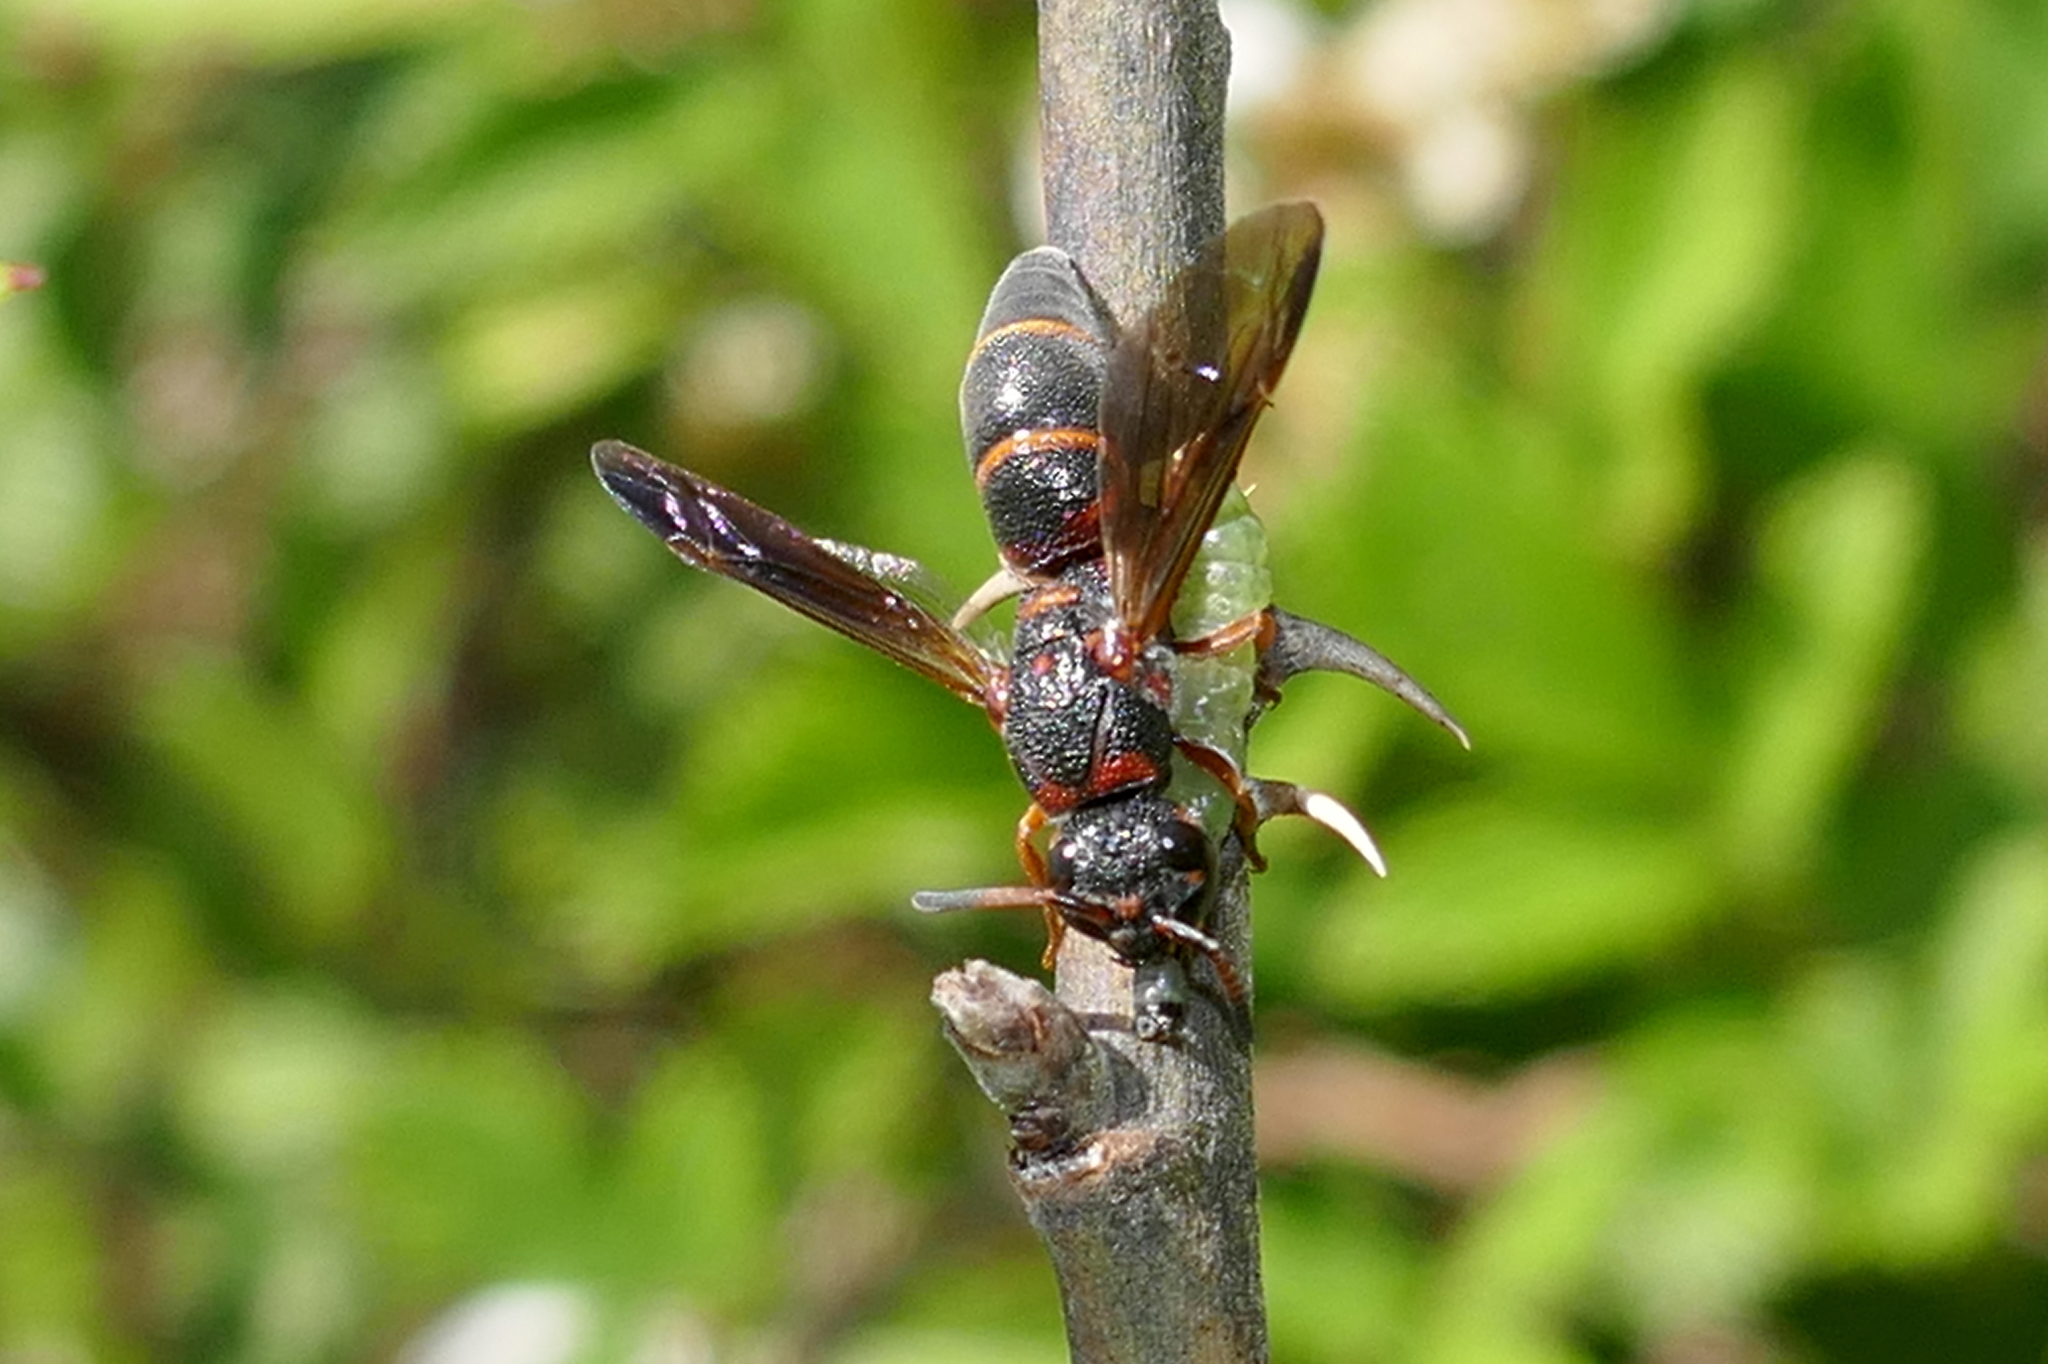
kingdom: Animalia
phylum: Arthropoda
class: Insecta
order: Hymenoptera
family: Eumenidae
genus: Parancistrocerus
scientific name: Parancistrocerus fulvipes
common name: Potter wasp
